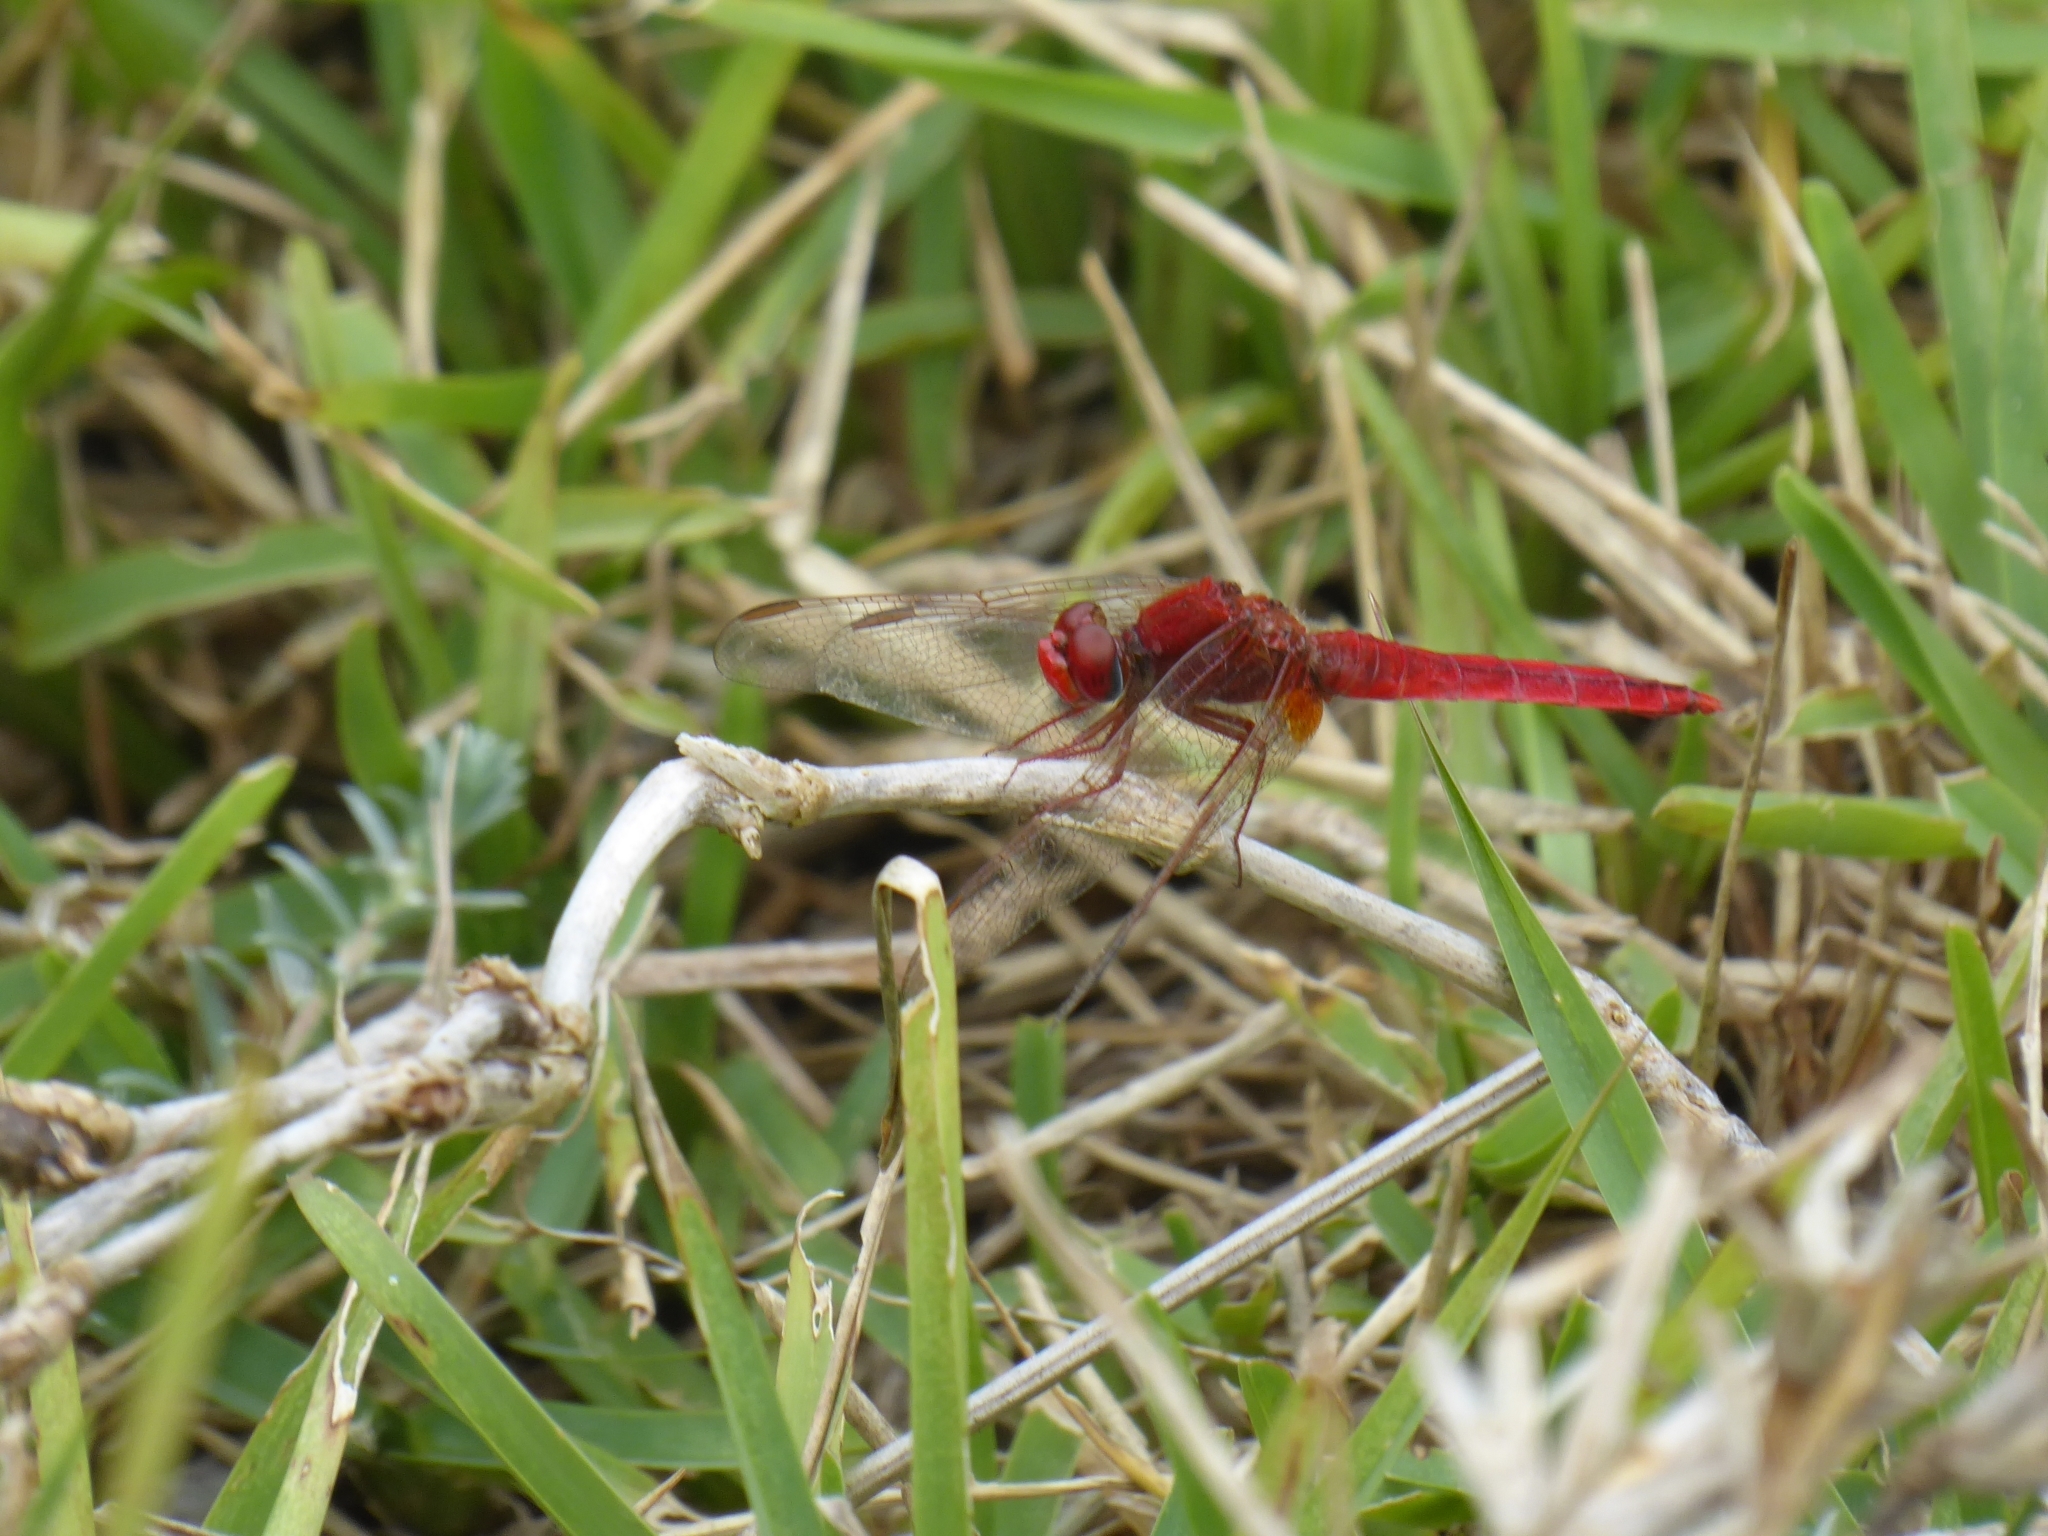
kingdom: Animalia
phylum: Arthropoda
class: Insecta
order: Odonata
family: Libellulidae
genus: Crocothemis
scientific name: Crocothemis erythraea
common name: Scarlet dragonfly
